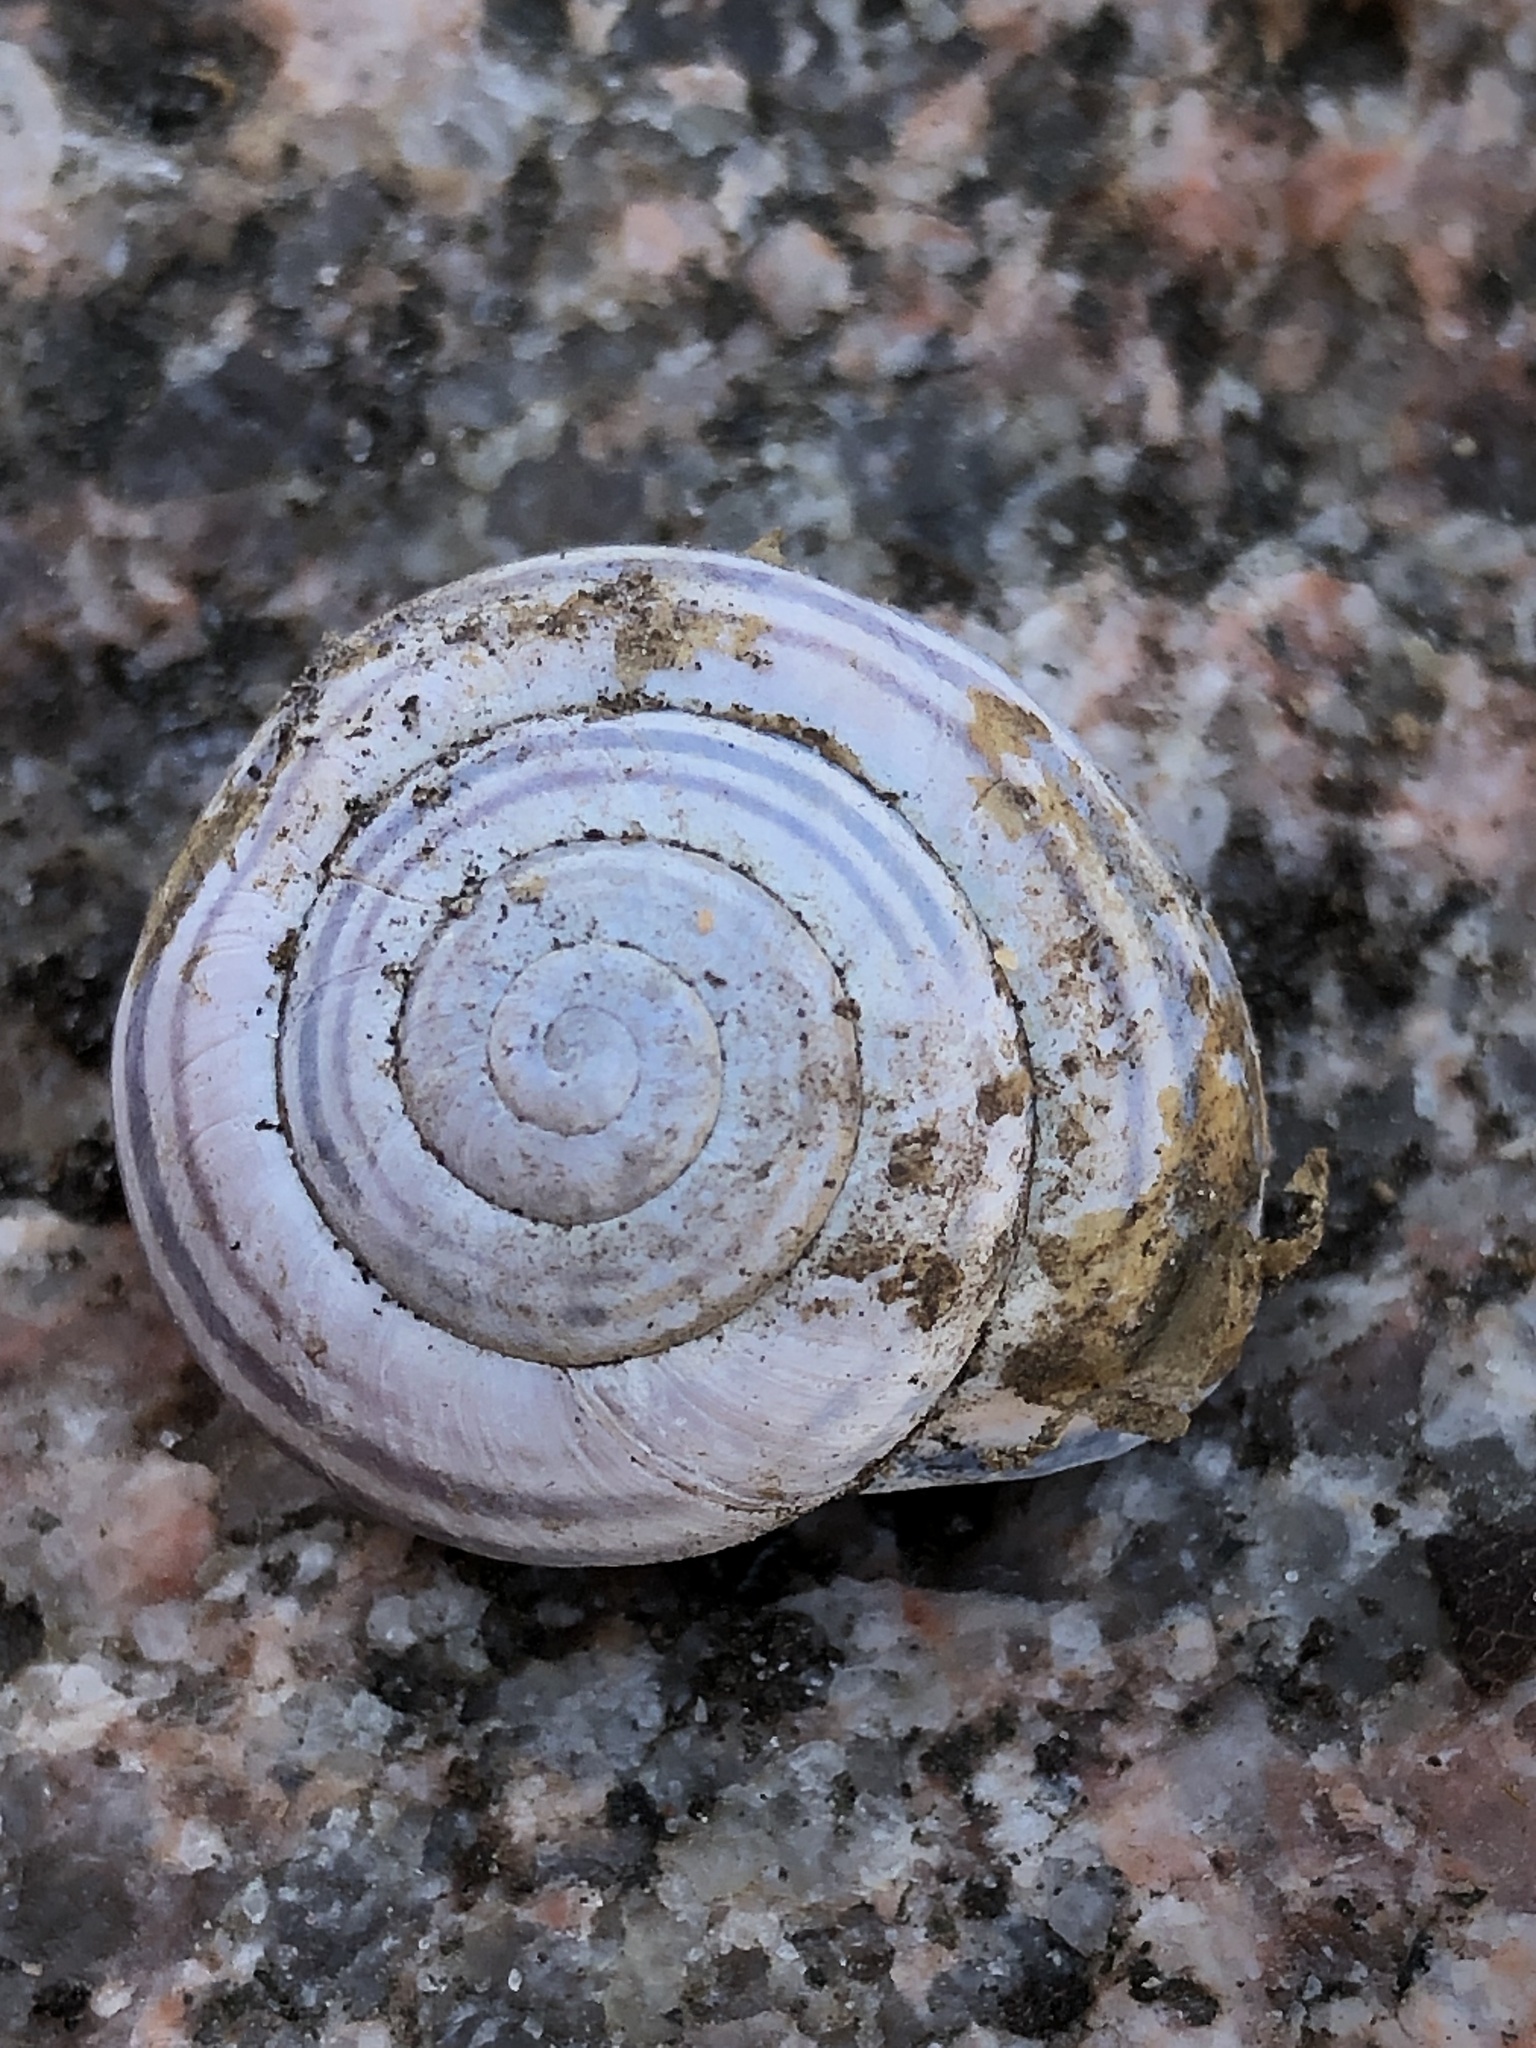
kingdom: Animalia
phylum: Mollusca
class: Gastropoda
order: Stylommatophora
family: Helicidae
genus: Cepaea
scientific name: Cepaea nemoralis
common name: Grovesnail
